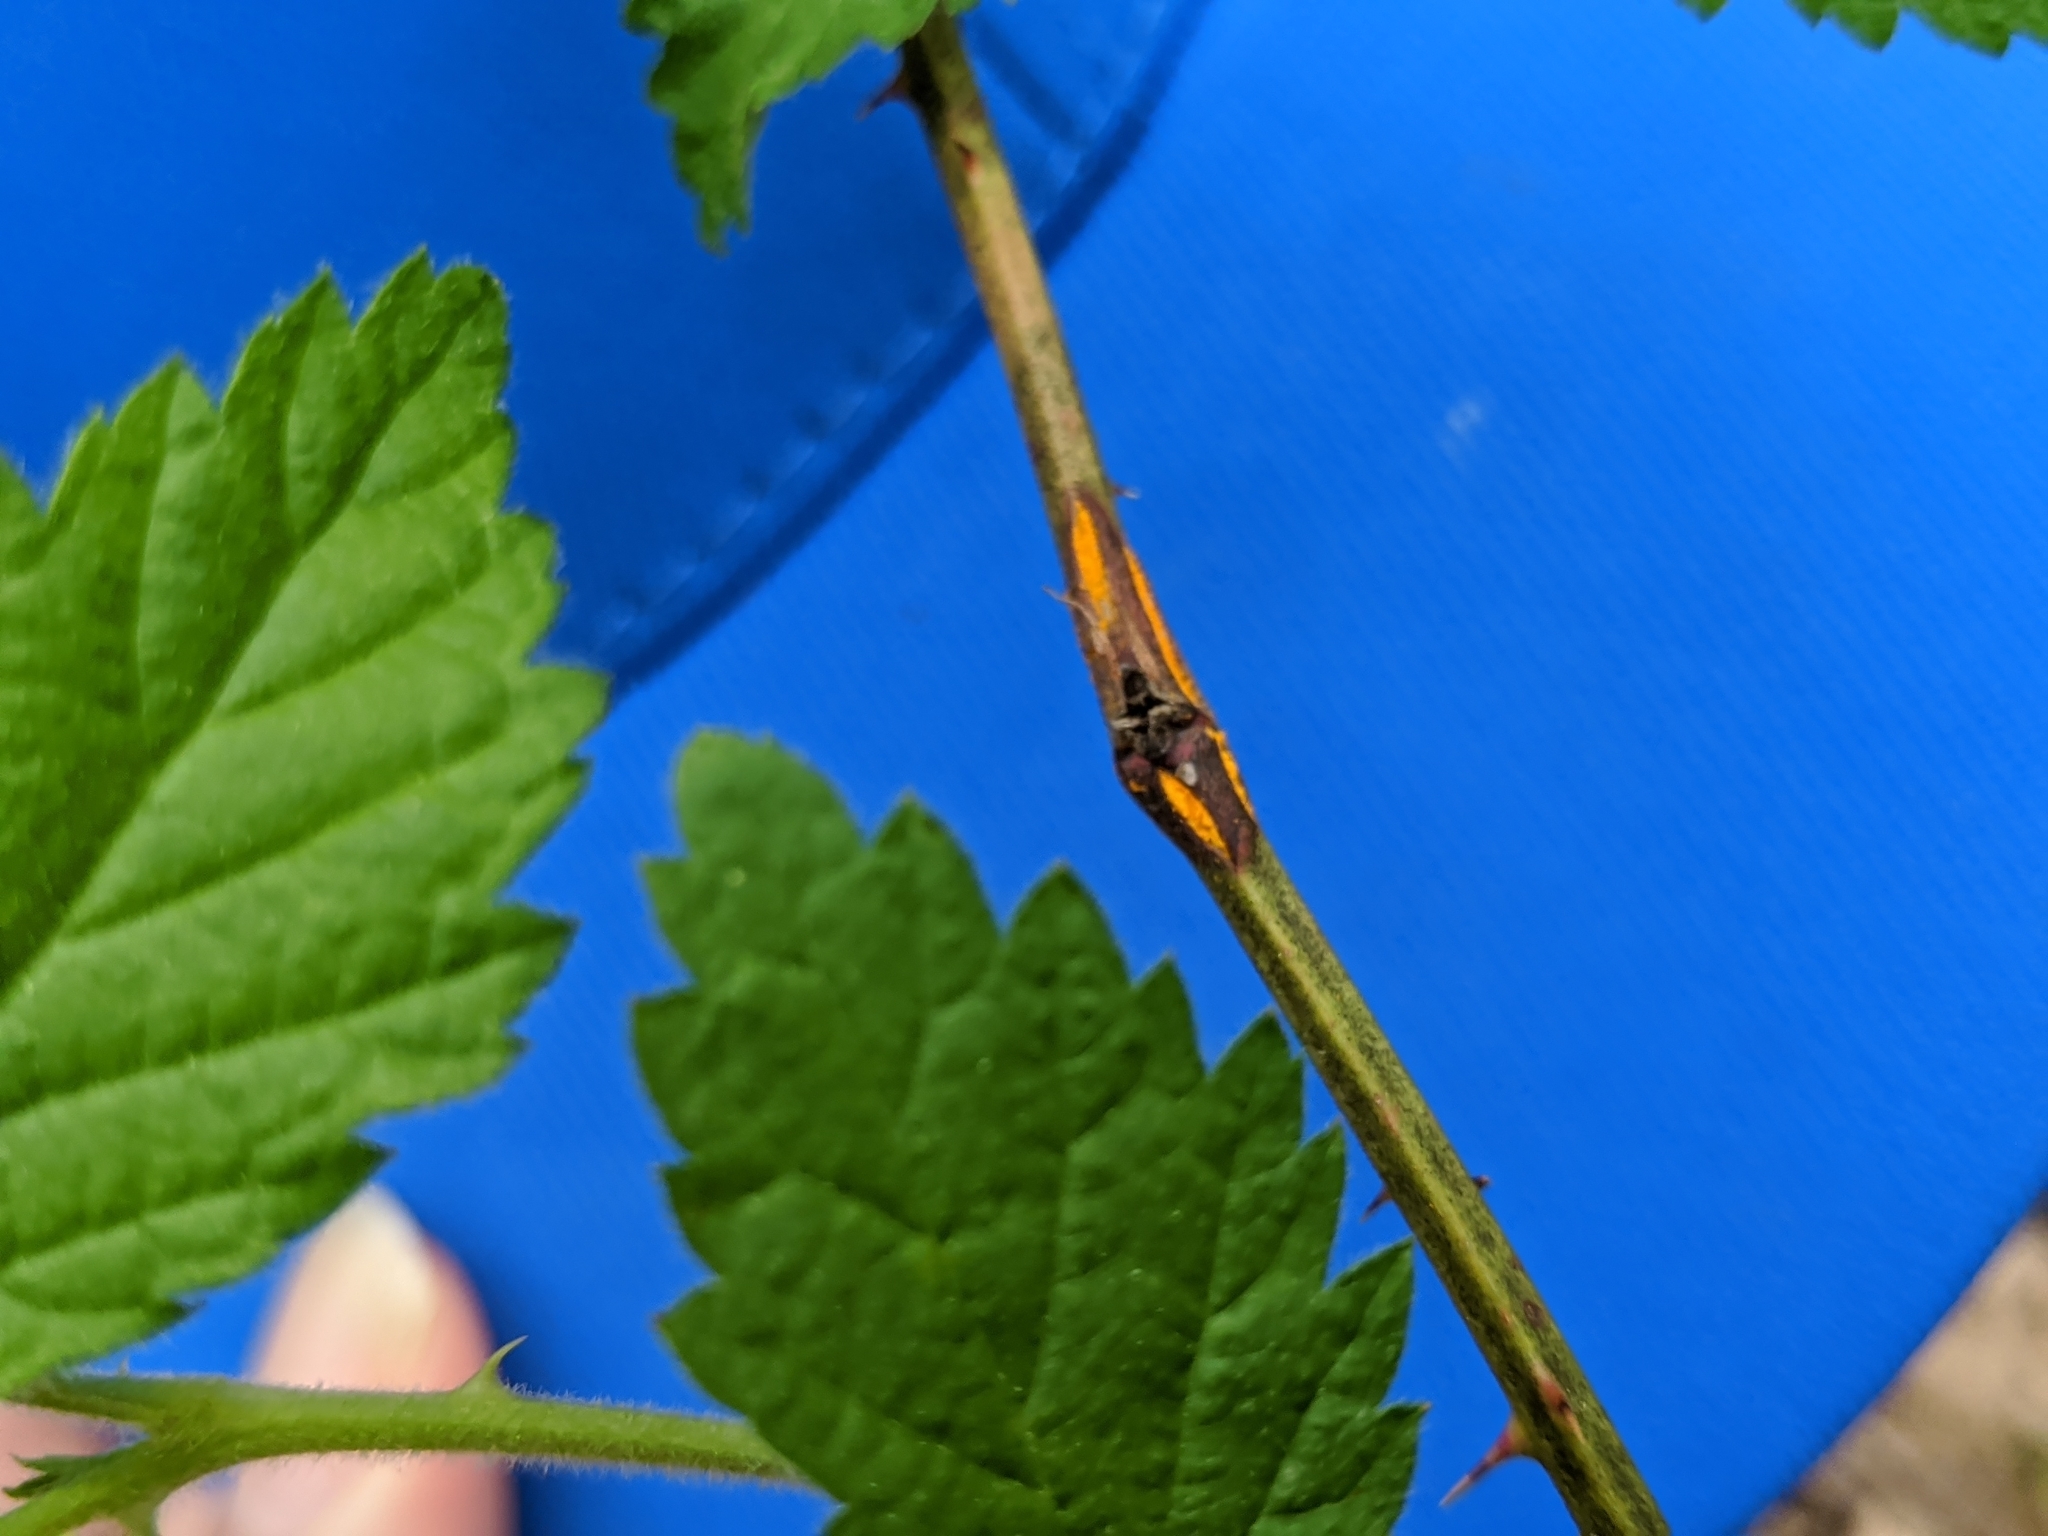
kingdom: Fungi
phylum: Basidiomycota
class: Pucciniomycetes
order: Pucciniales
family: Phragmidiaceae
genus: Kuehneola
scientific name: Kuehneola uredinis
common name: Bramble stem rust
